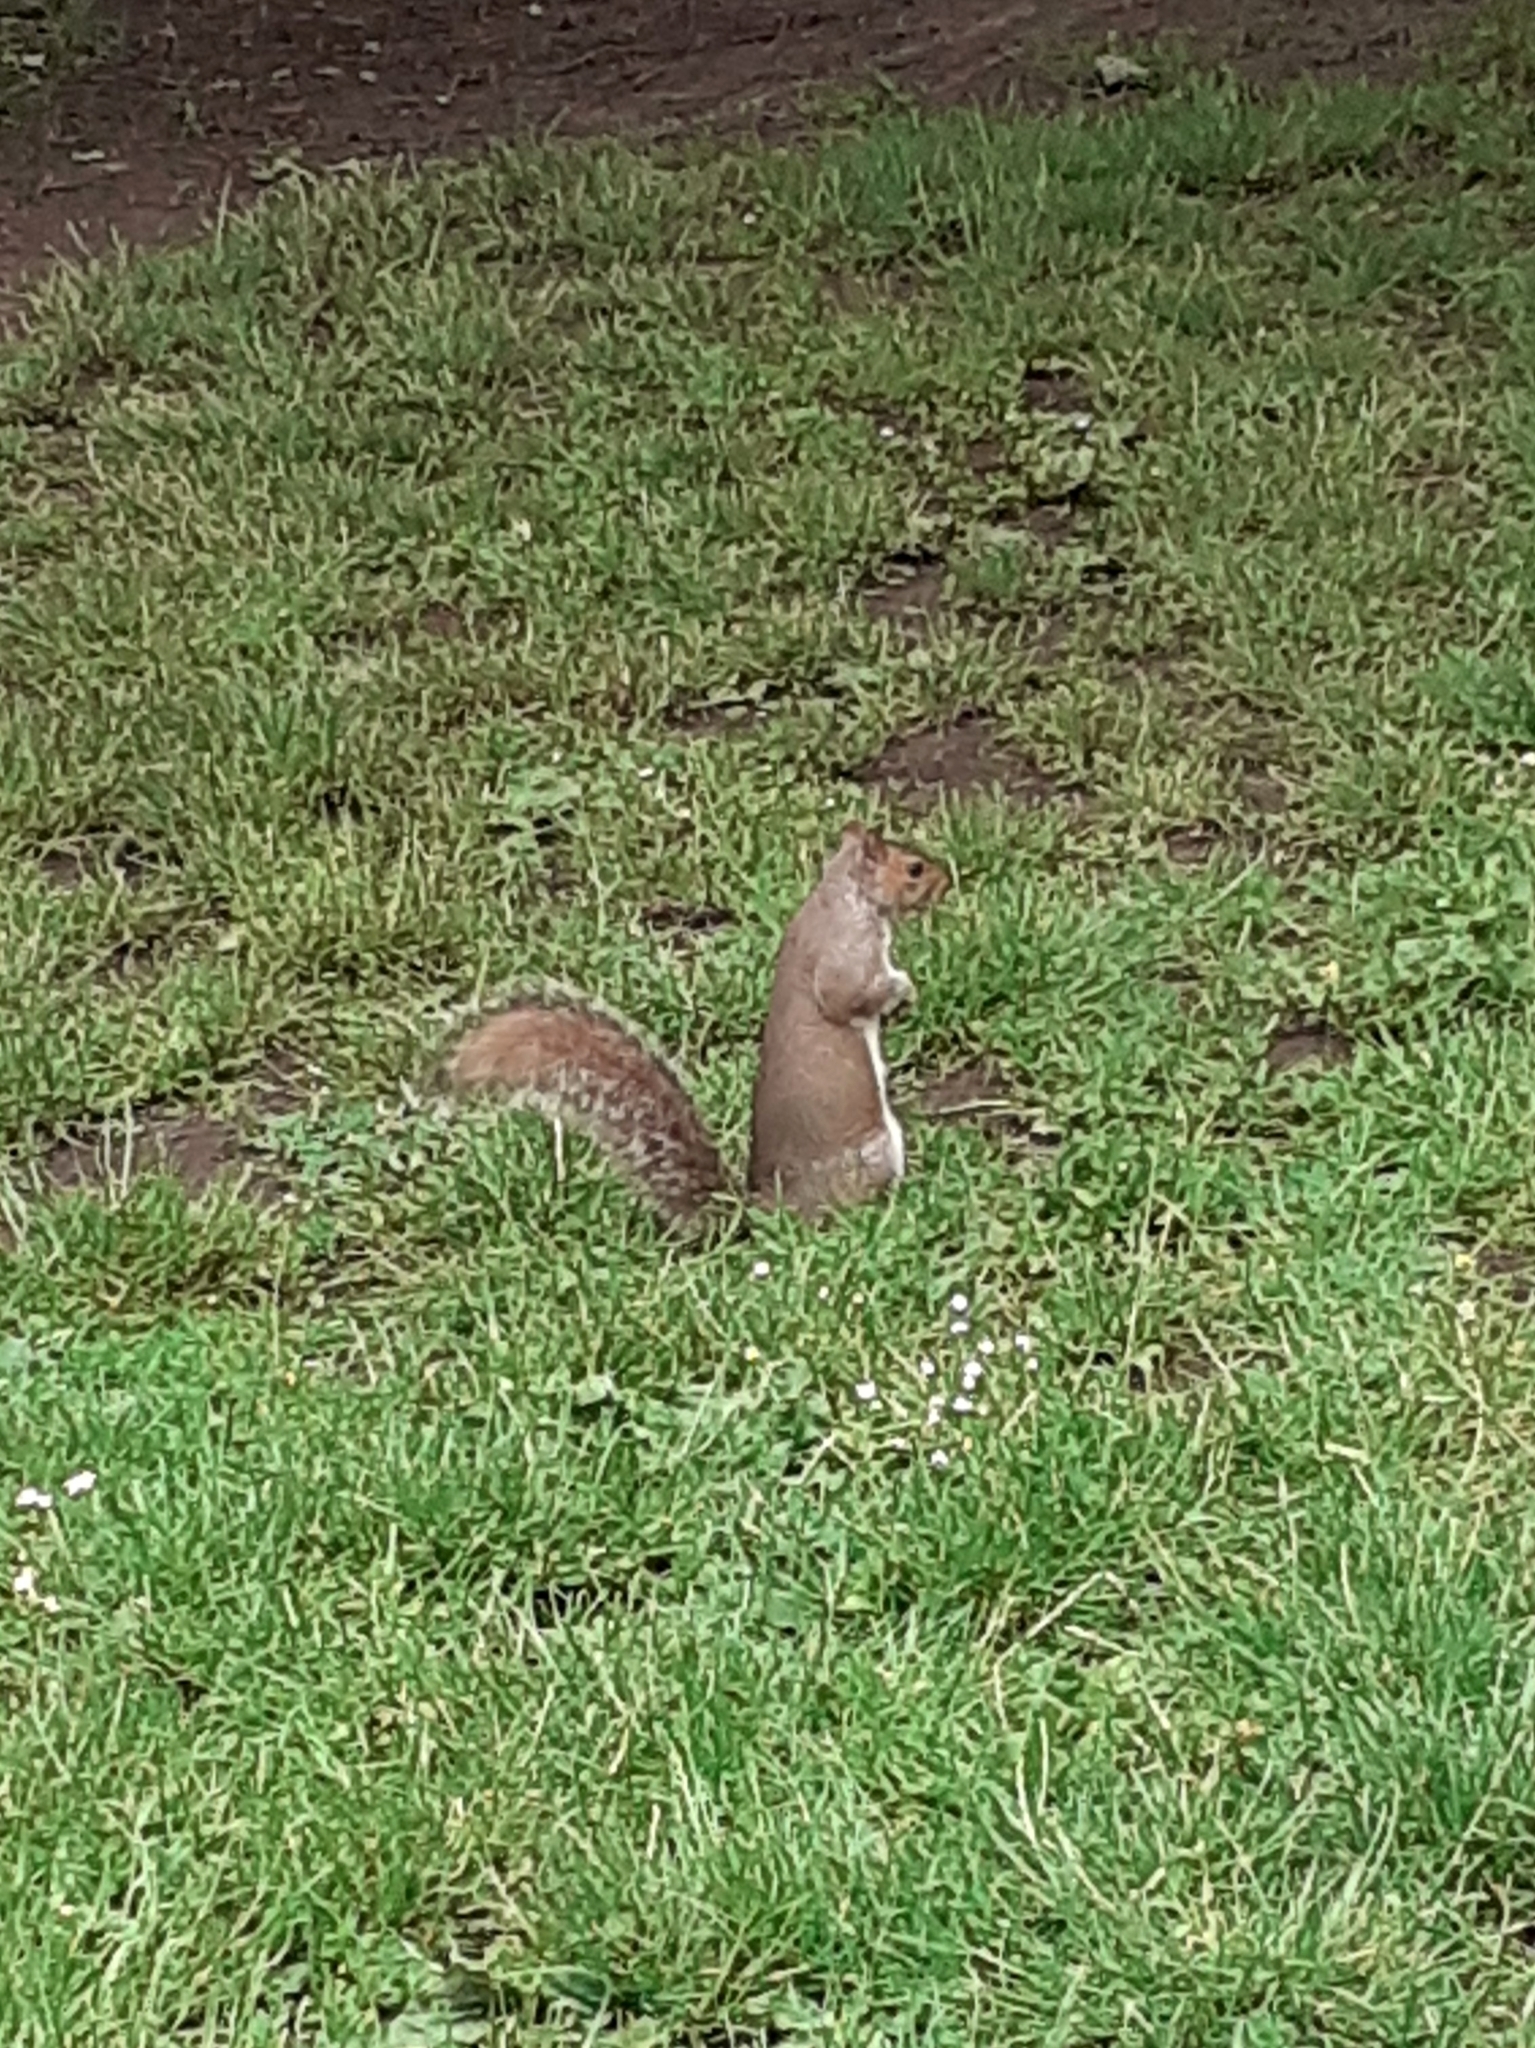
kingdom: Animalia
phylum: Chordata
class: Mammalia
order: Rodentia
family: Sciuridae
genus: Sciurus
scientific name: Sciurus carolinensis
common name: Eastern gray squirrel
